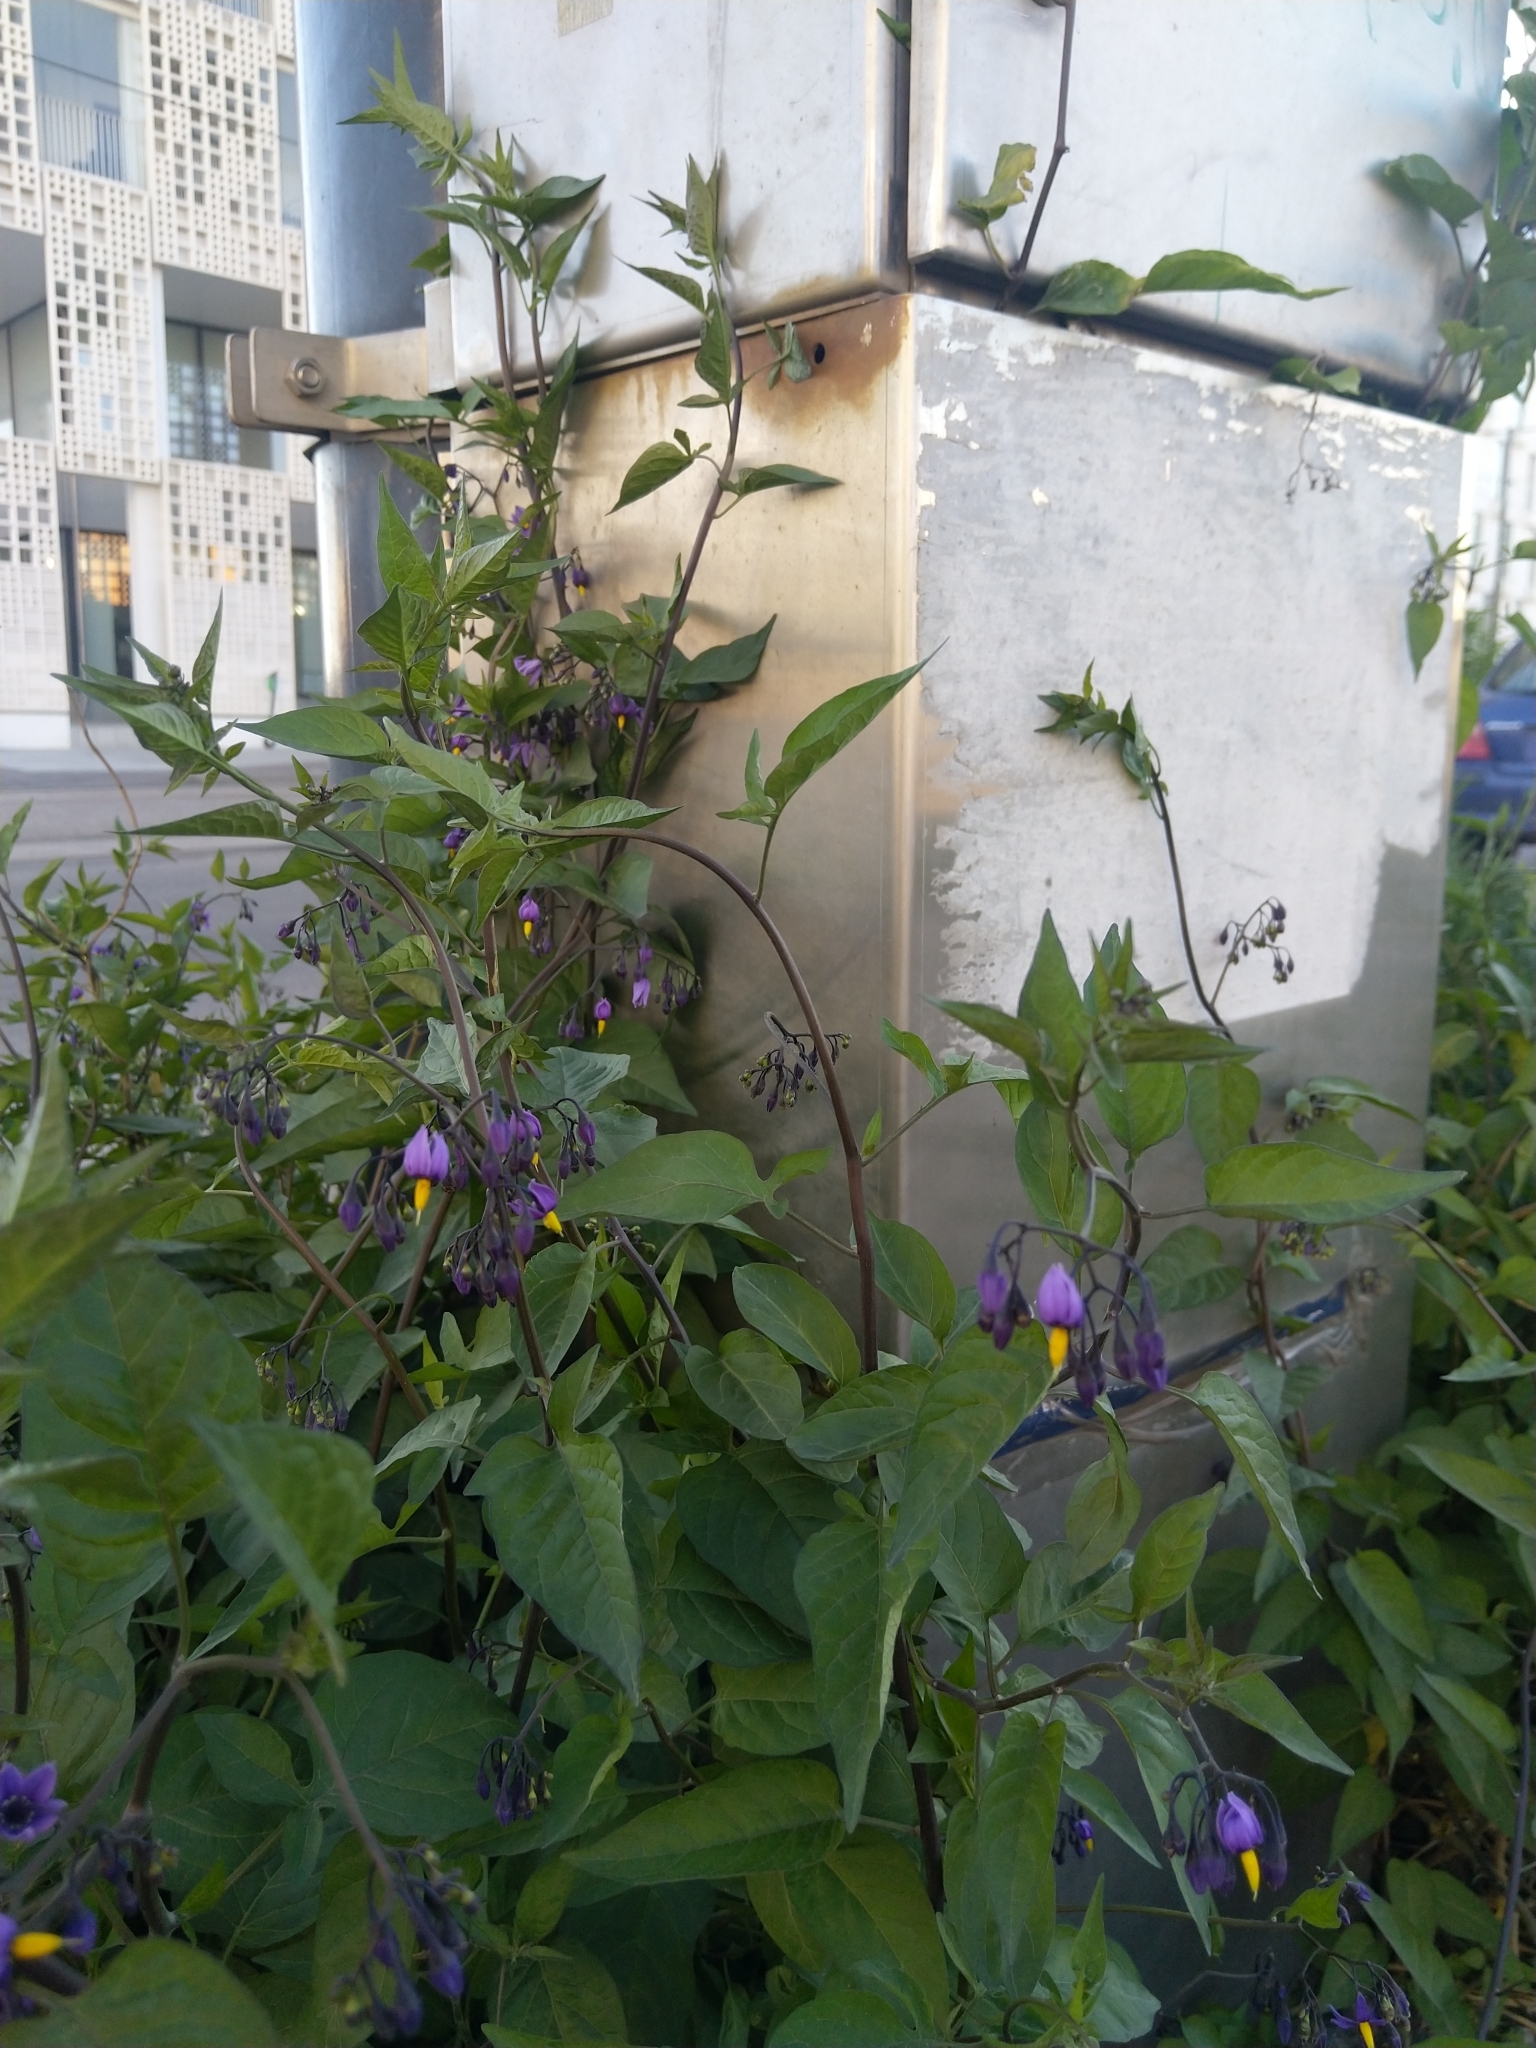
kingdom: Plantae
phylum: Tracheophyta
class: Magnoliopsida
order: Solanales
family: Solanaceae
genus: Solanum
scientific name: Solanum dulcamara
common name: Climbing nightshade
